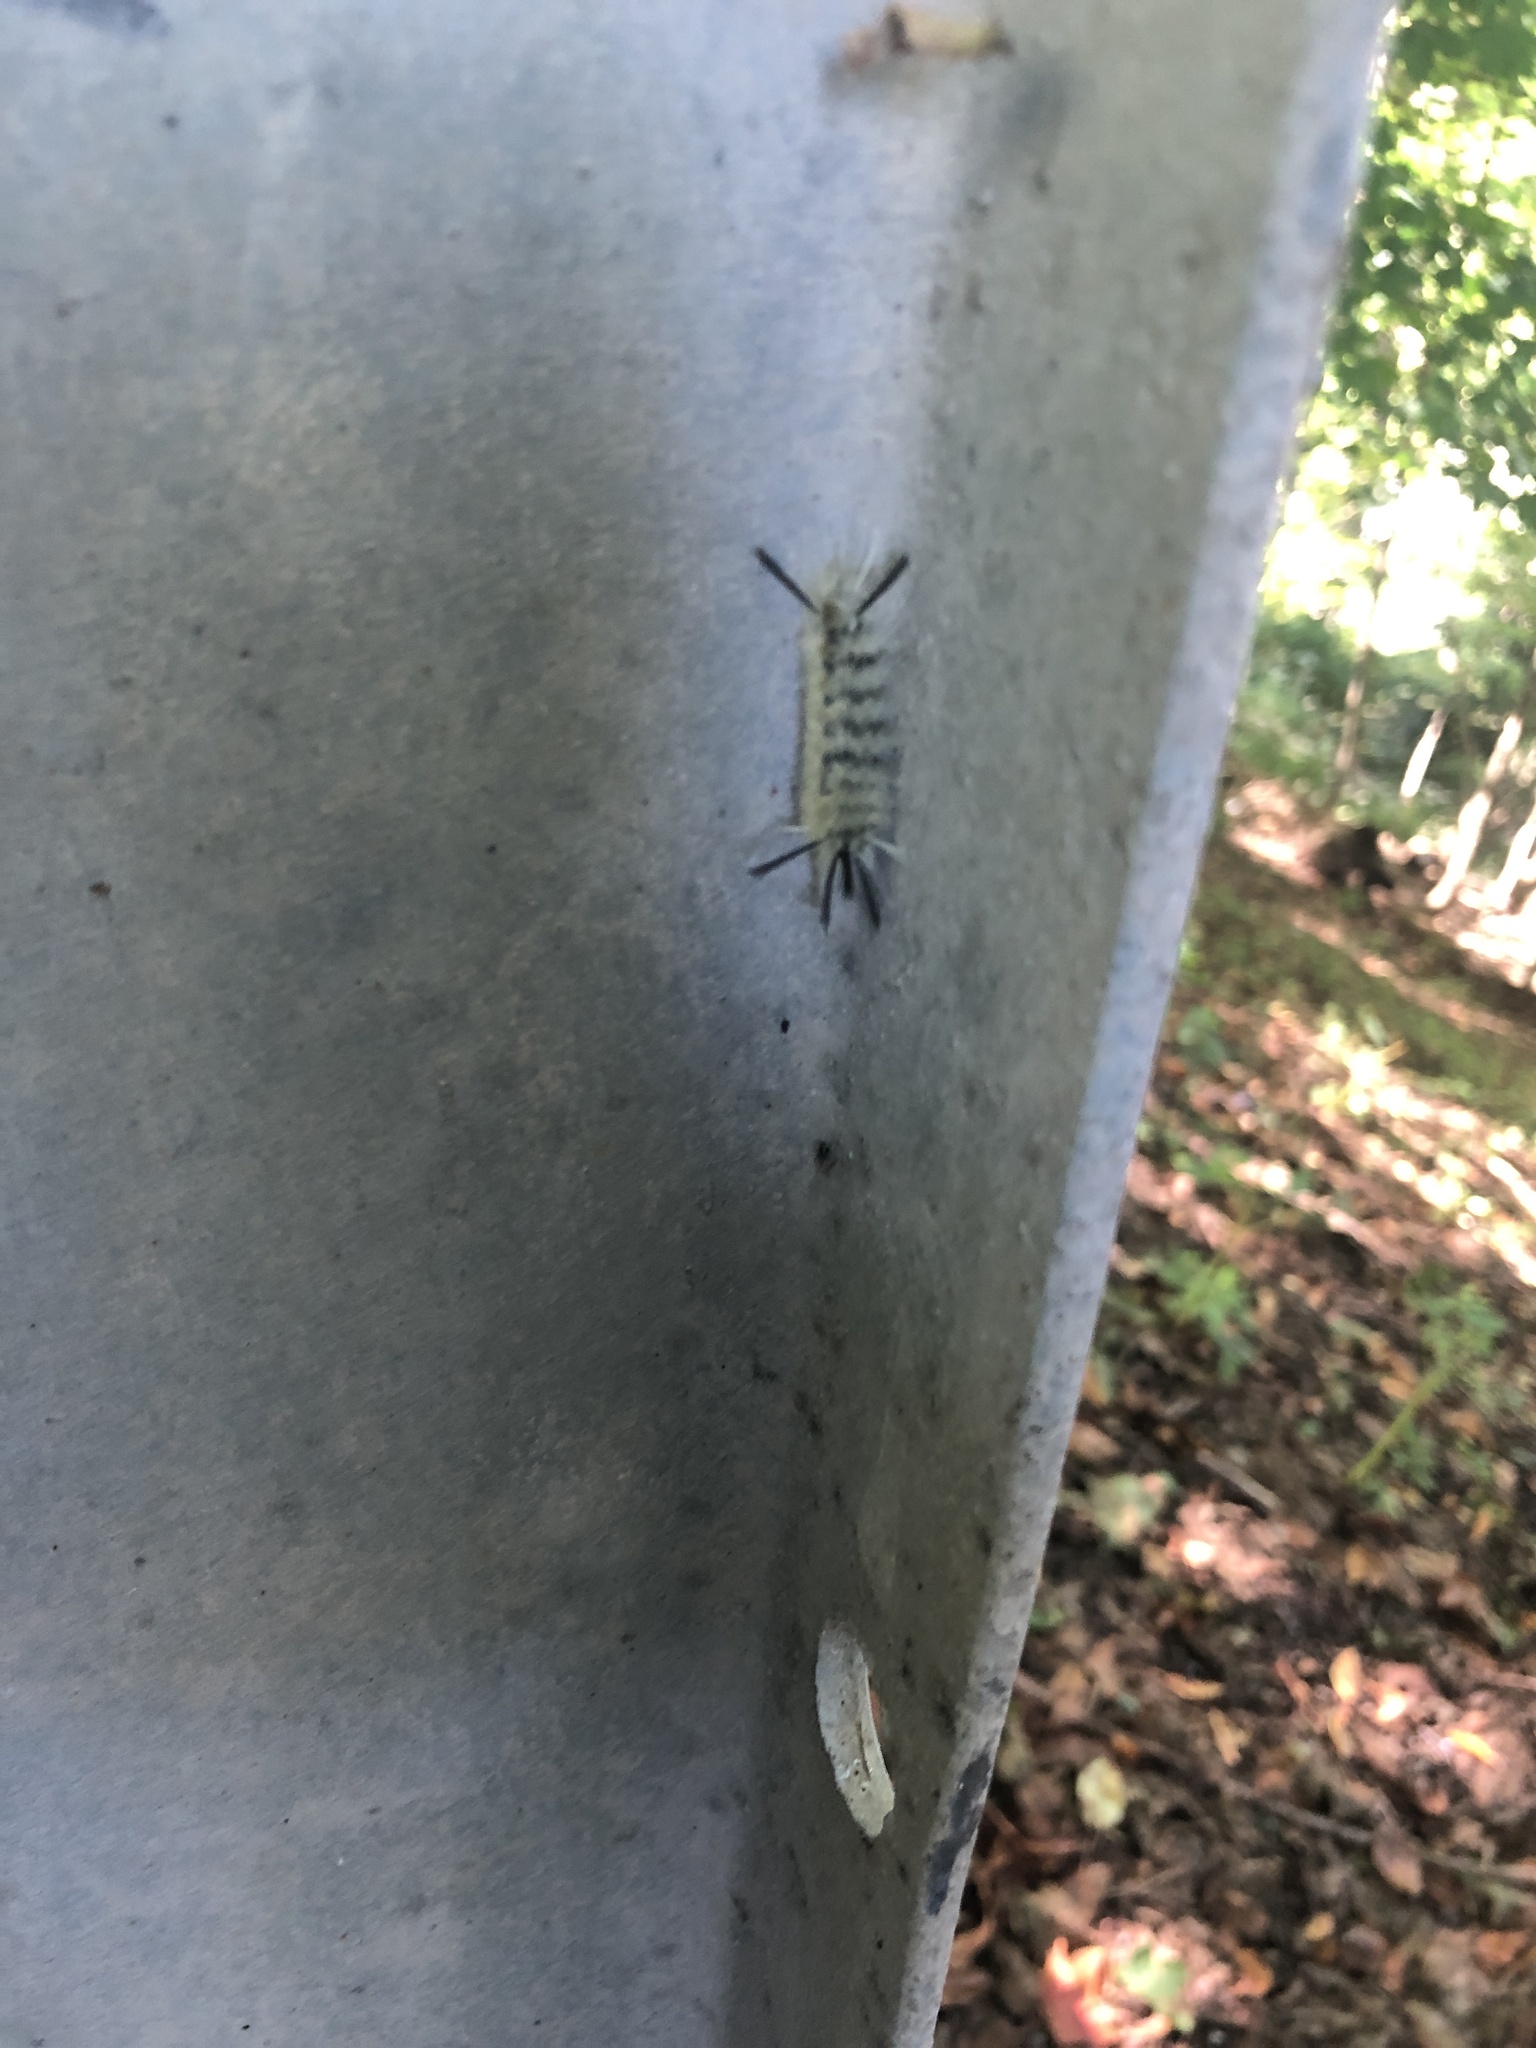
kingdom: Animalia
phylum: Arthropoda
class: Insecta
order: Lepidoptera
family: Erebidae
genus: Halysidota
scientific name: Halysidota tessellaris
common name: Banded tussock moth
